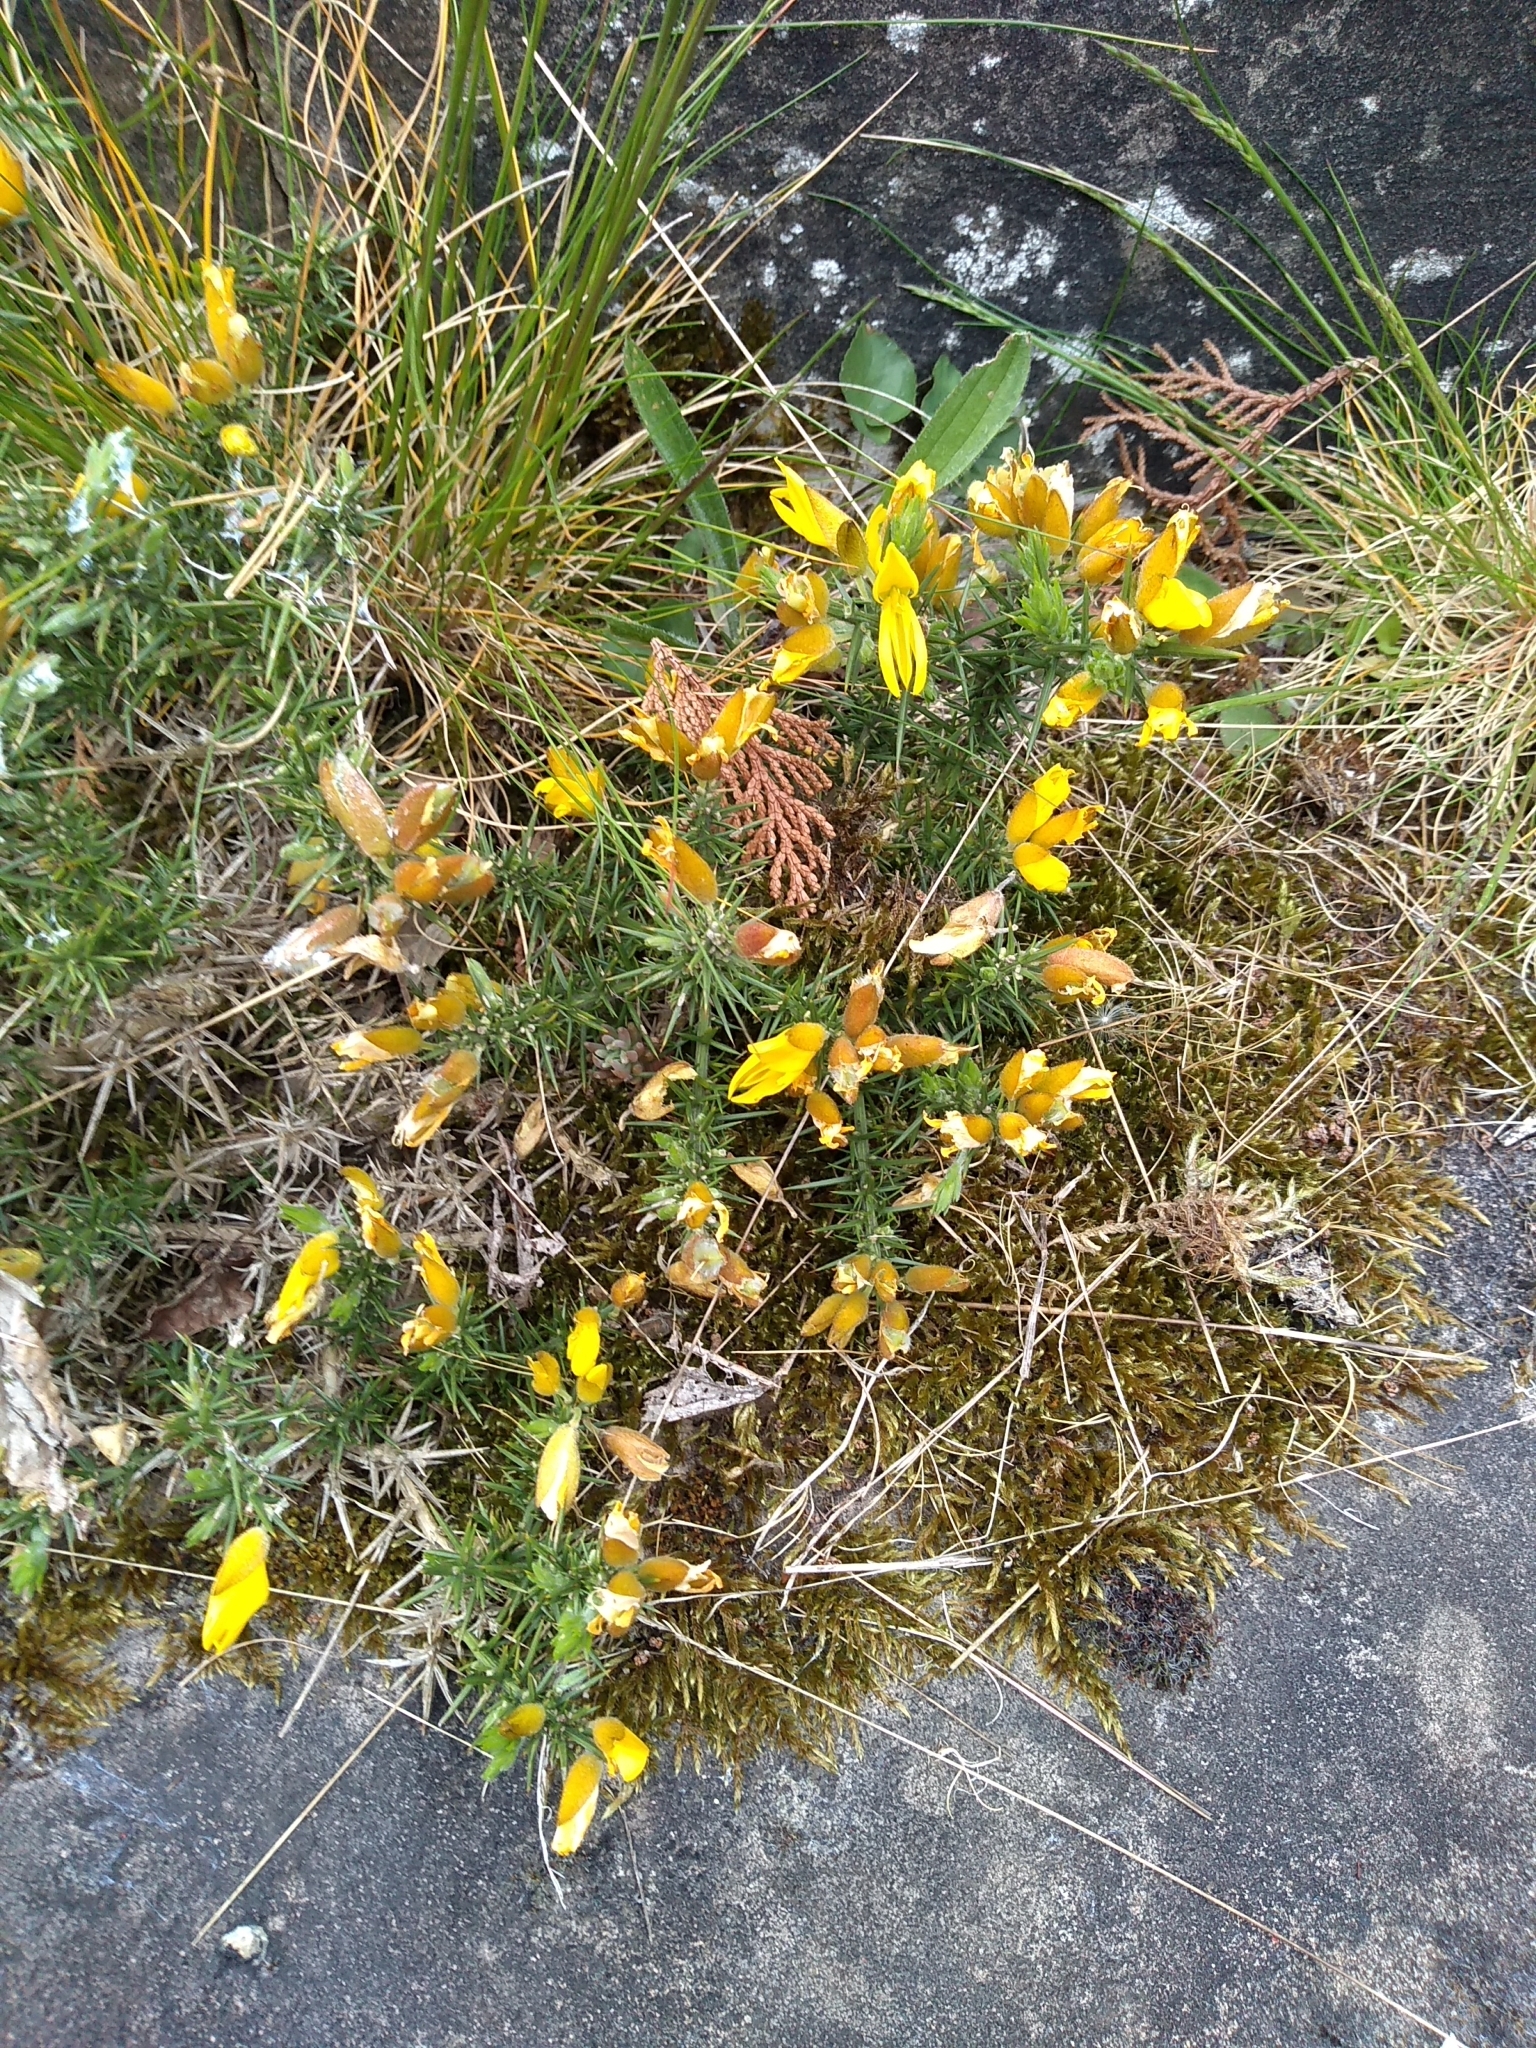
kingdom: Plantae
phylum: Tracheophyta
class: Magnoliopsida
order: Fabales
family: Fabaceae
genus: Ulex
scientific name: Ulex europaeus
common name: Common gorse
